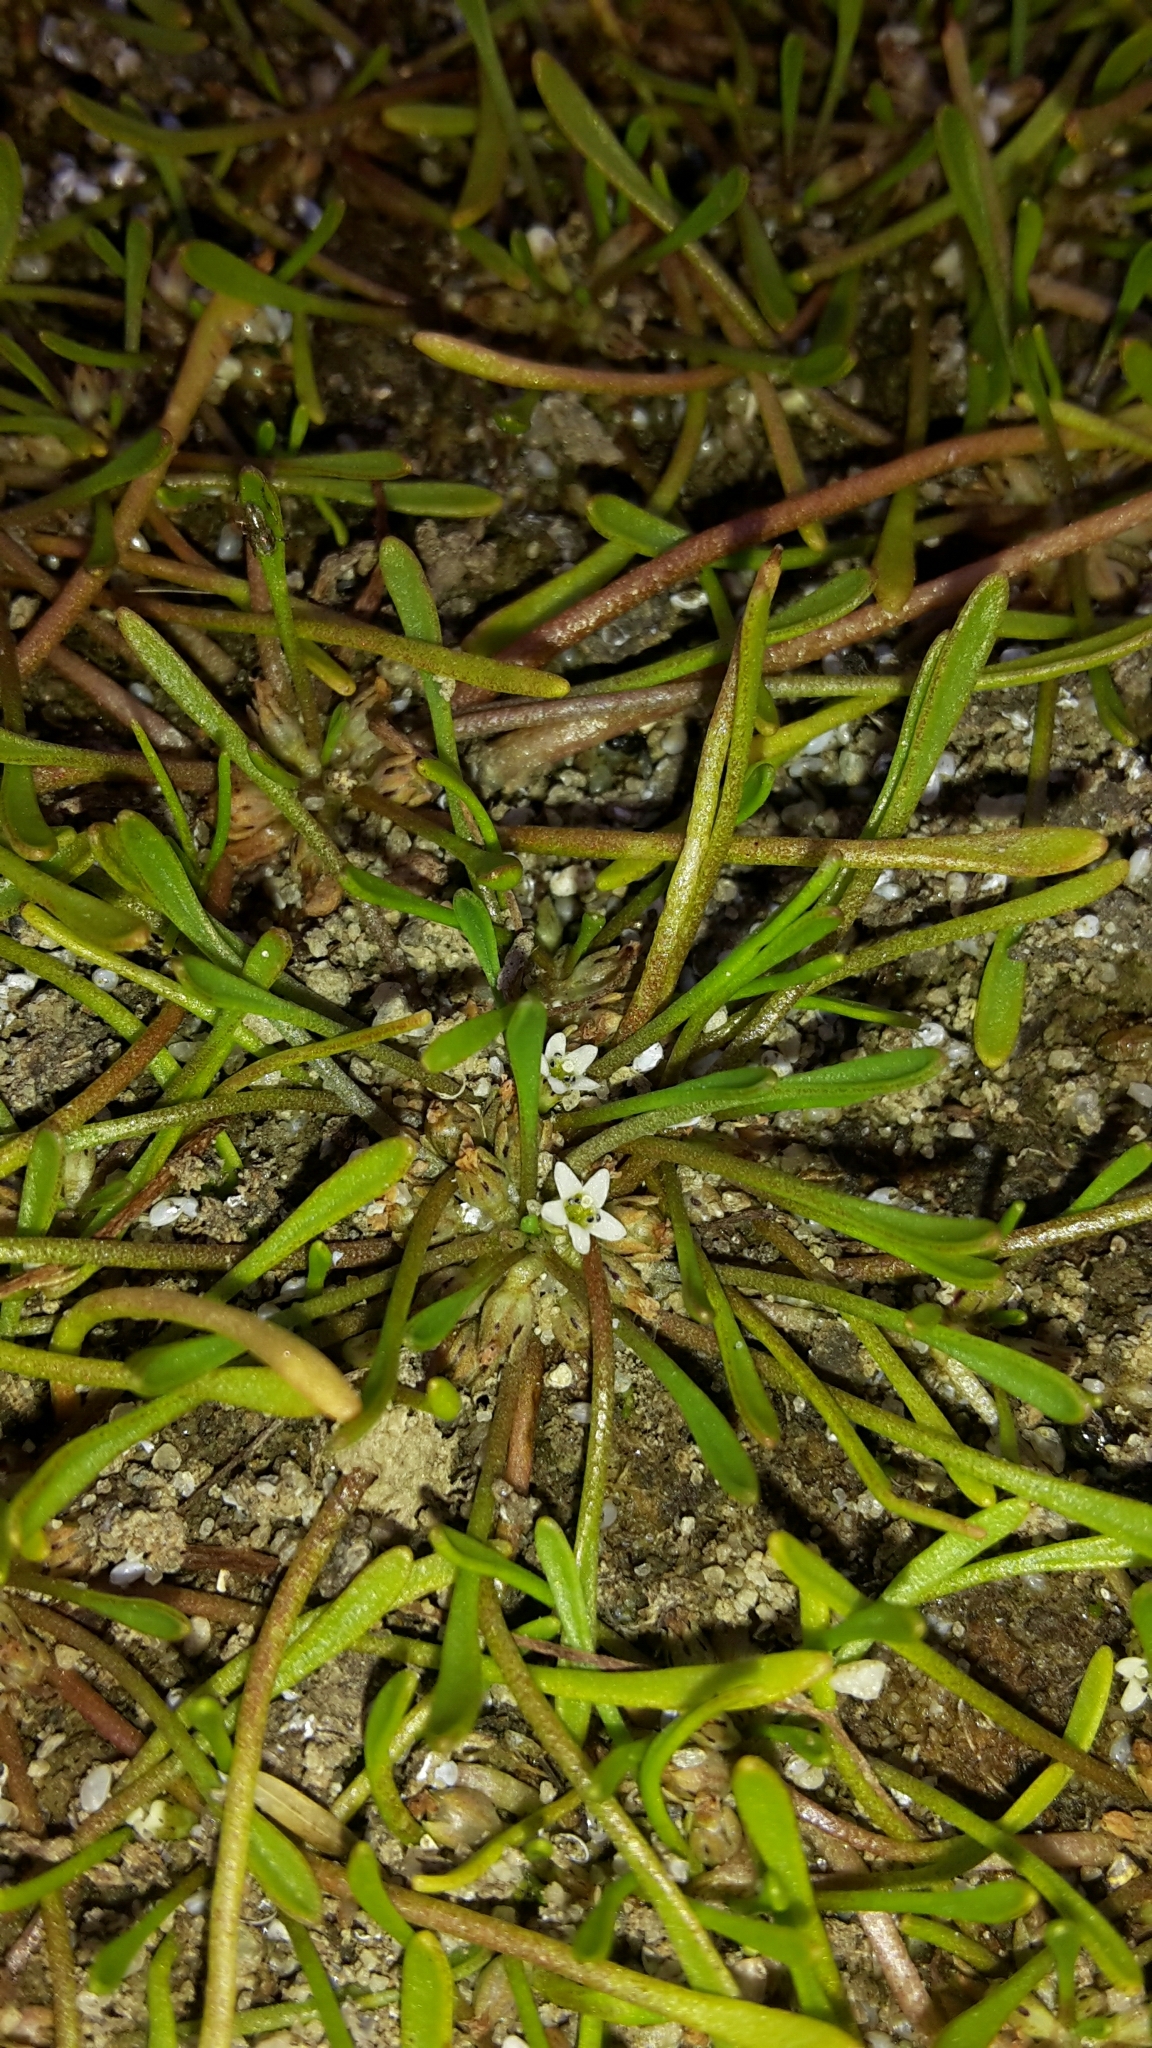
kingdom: Plantae
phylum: Tracheophyta
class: Magnoliopsida
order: Lamiales
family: Scrophulariaceae
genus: Limosella
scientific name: Limosella australis
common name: Welsh mudwort
